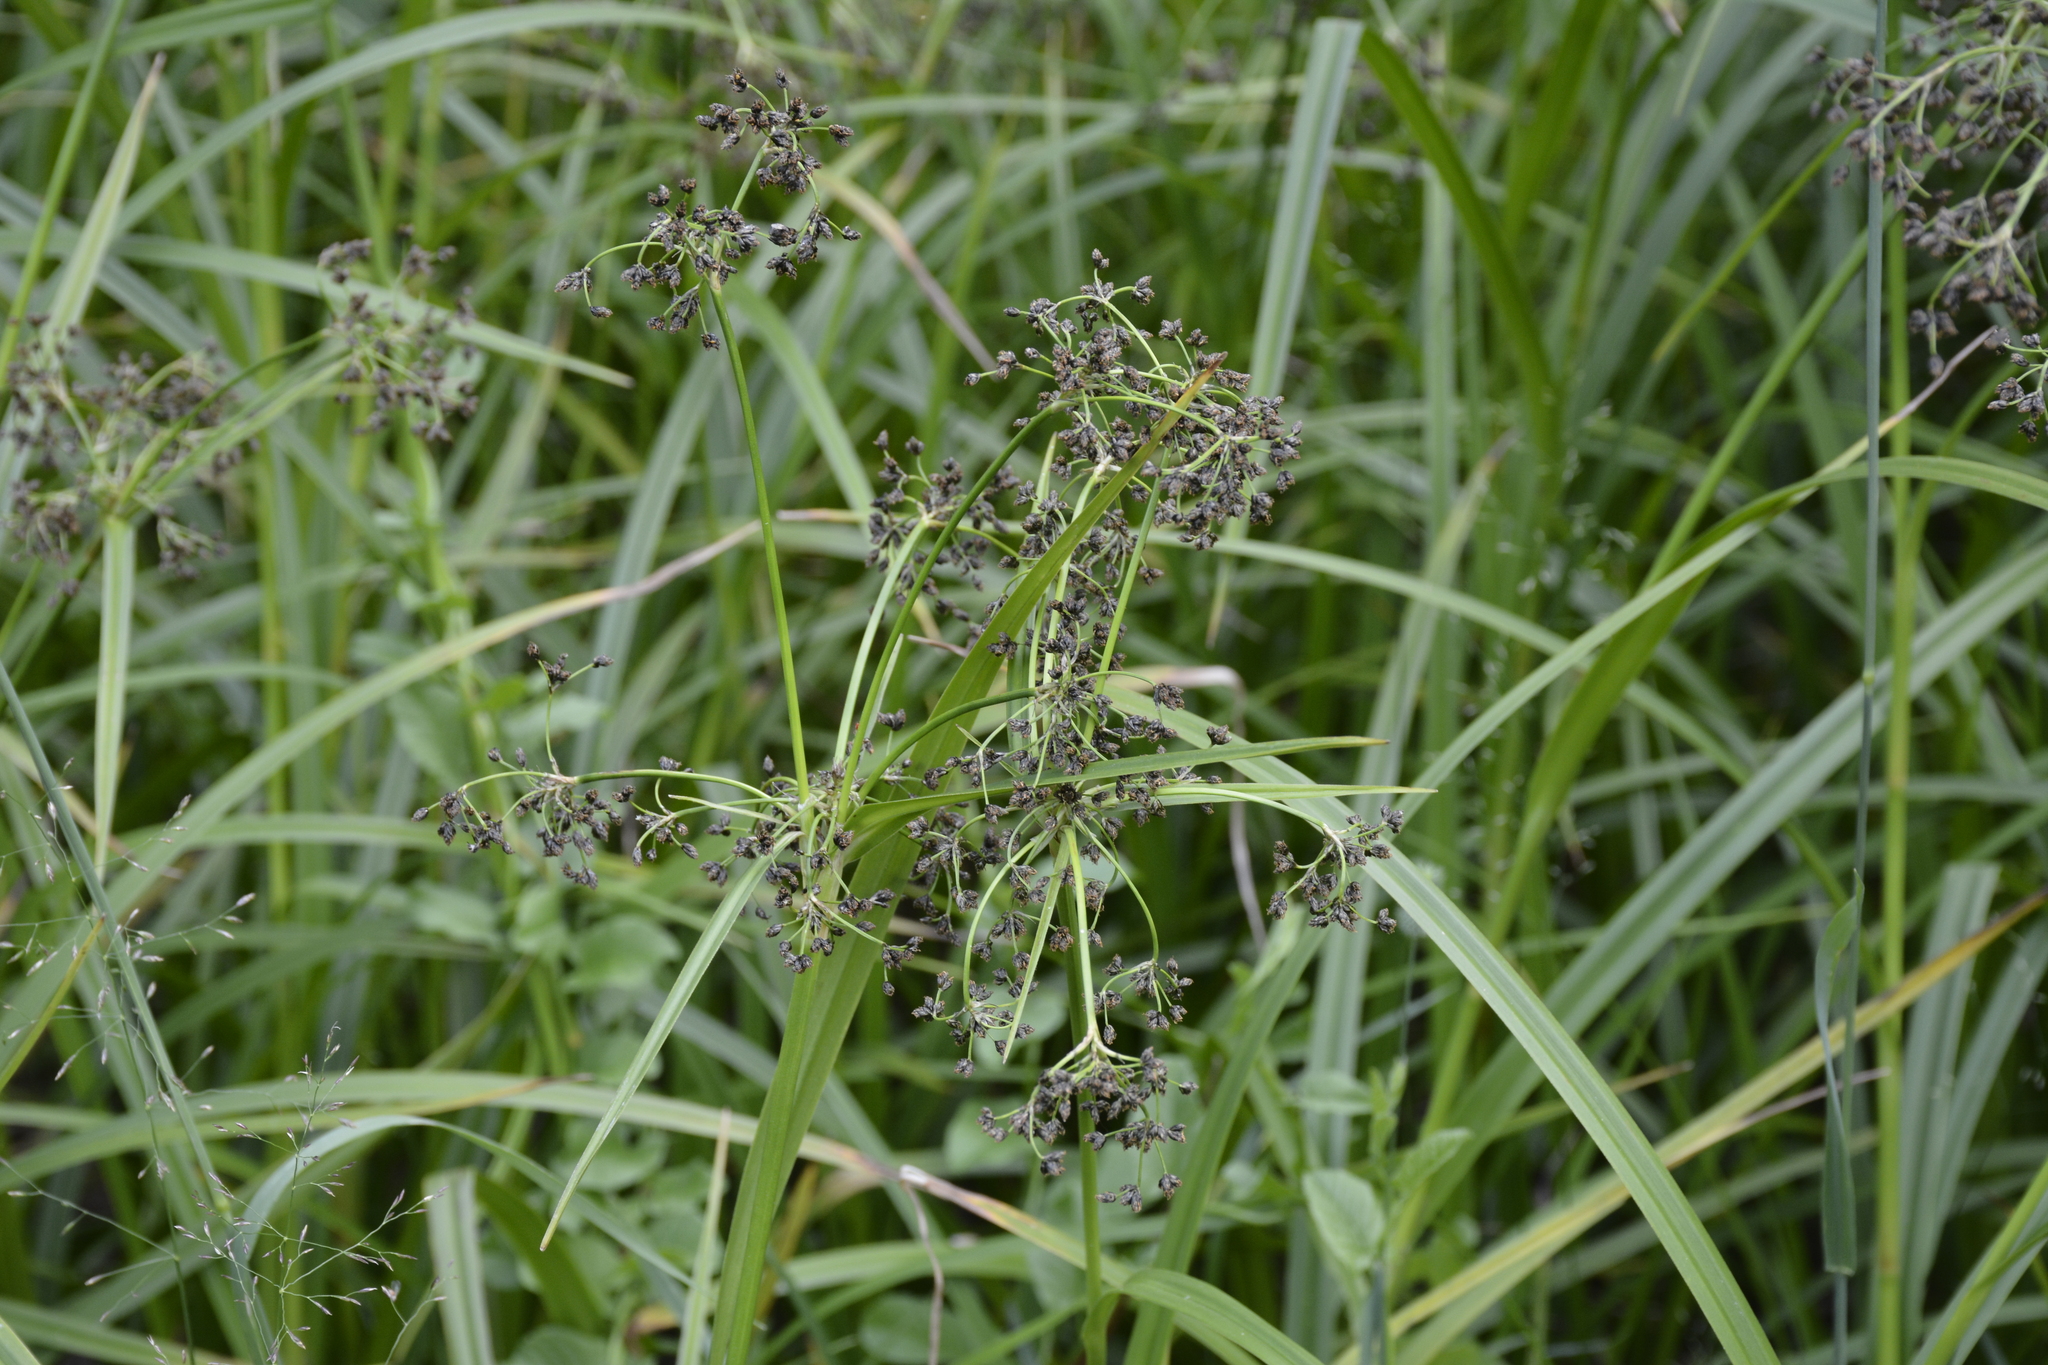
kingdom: Plantae
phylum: Tracheophyta
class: Liliopsida
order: Poales
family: Cyperaceae
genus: Scirpus
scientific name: Scirpus sylvaticus
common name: Wood club-rush
